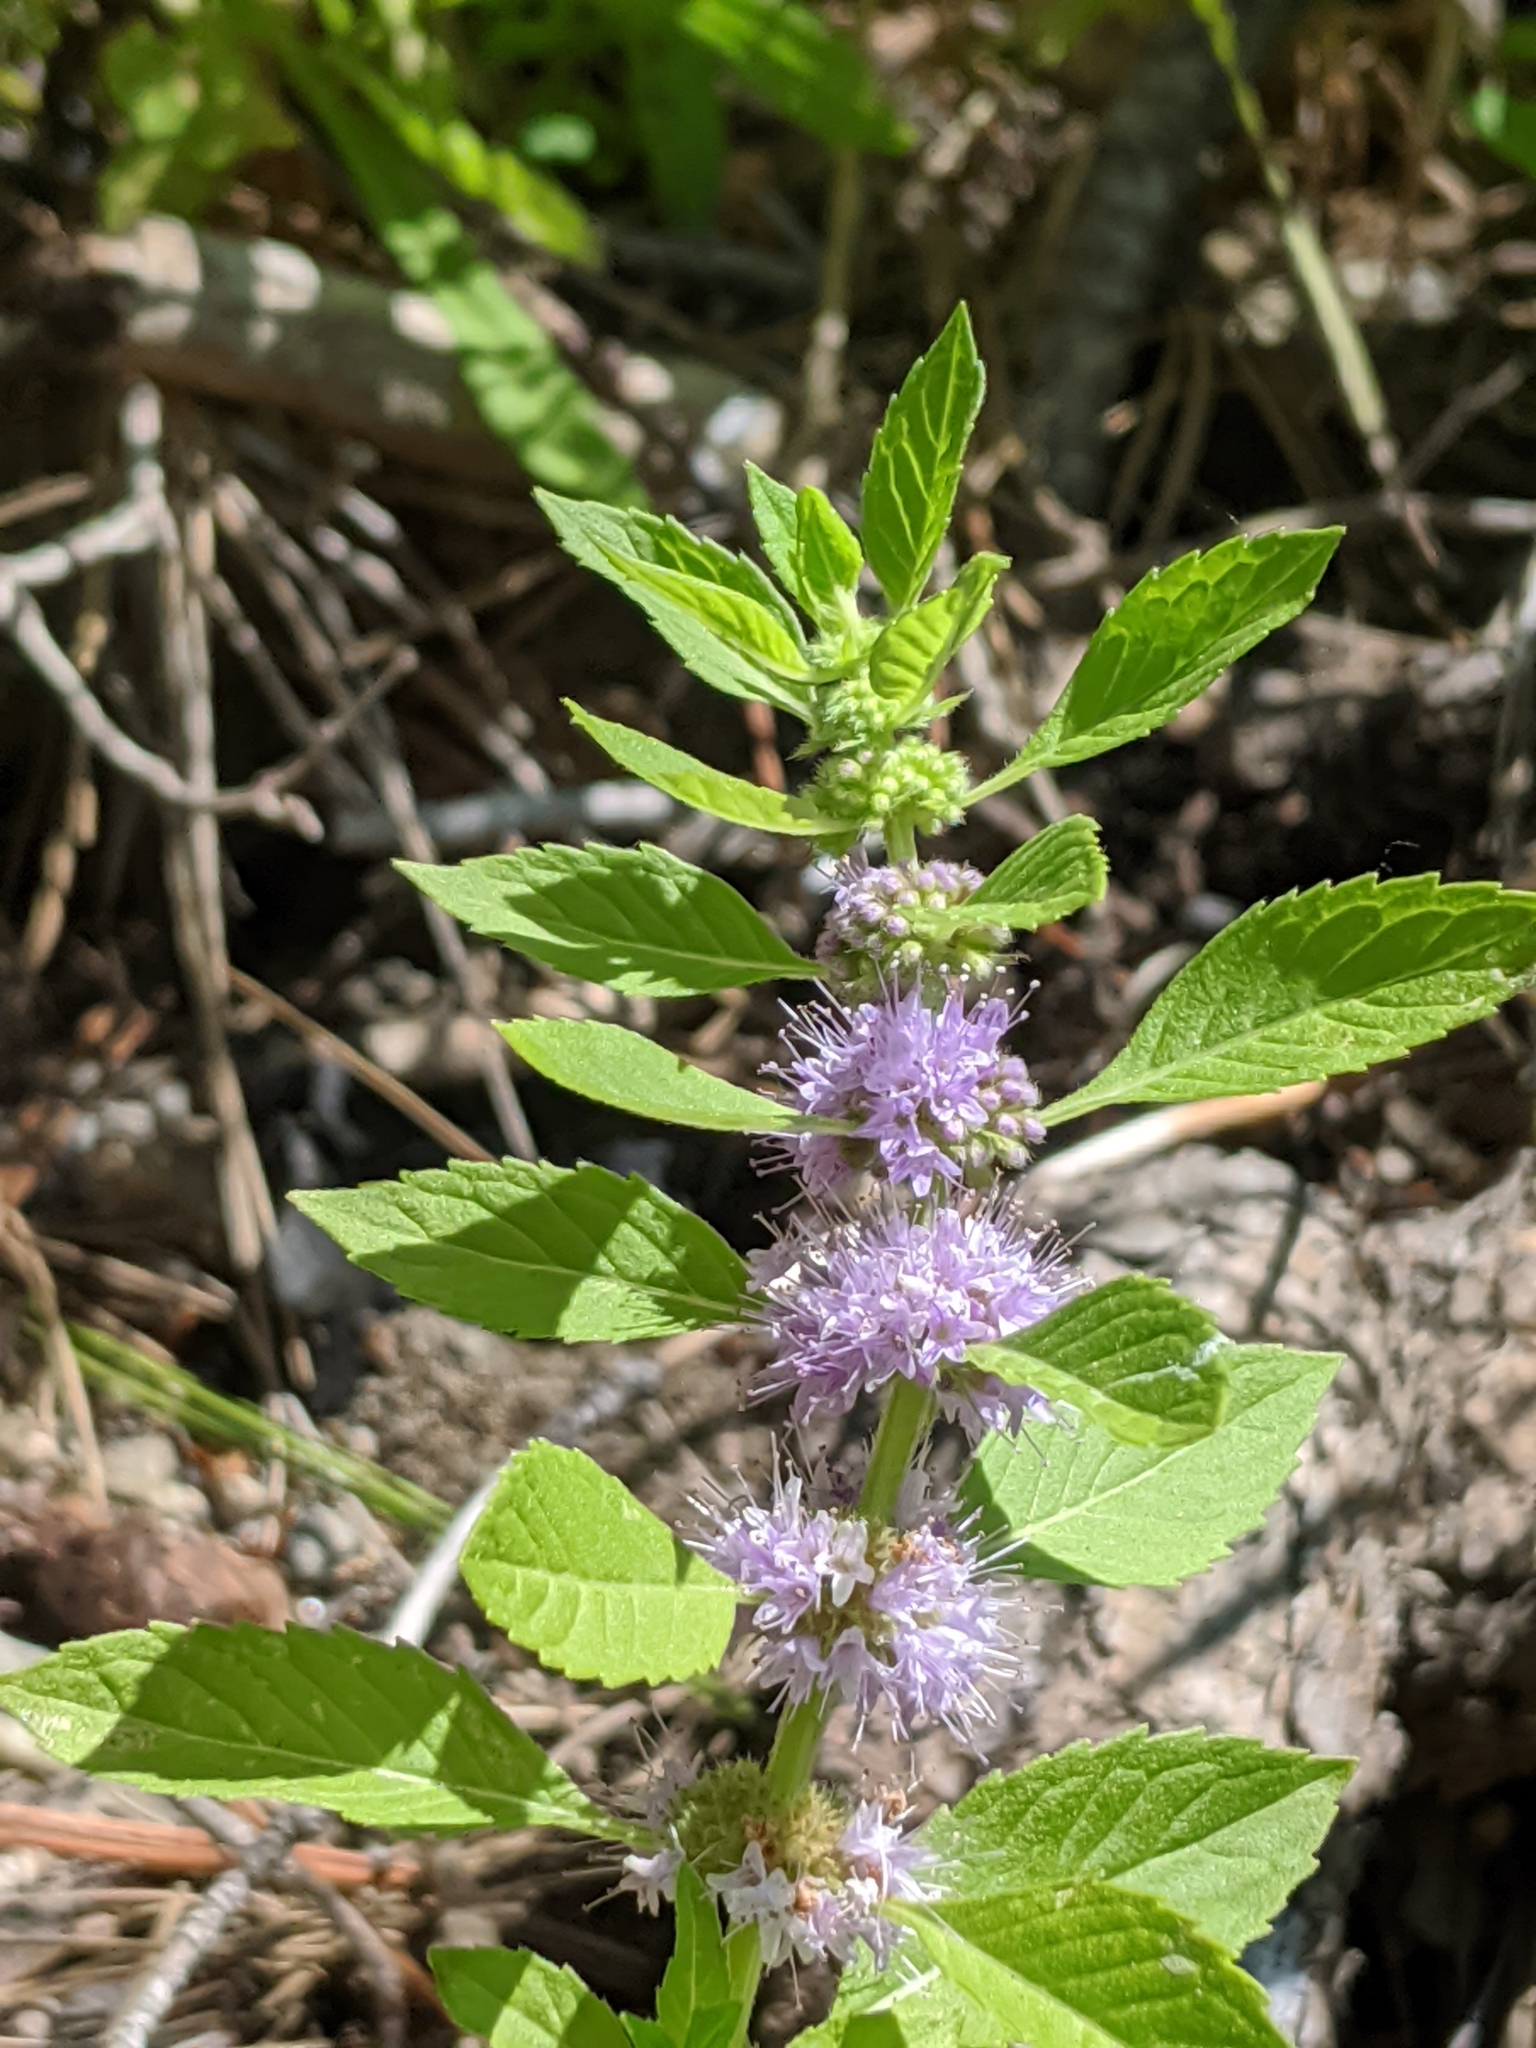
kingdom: Plantae
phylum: Tracheophyta
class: Magnoliopsida
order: Lamiales
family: Lamiaceae
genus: Mentha
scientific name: Mentha canadensis
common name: American corn mint
